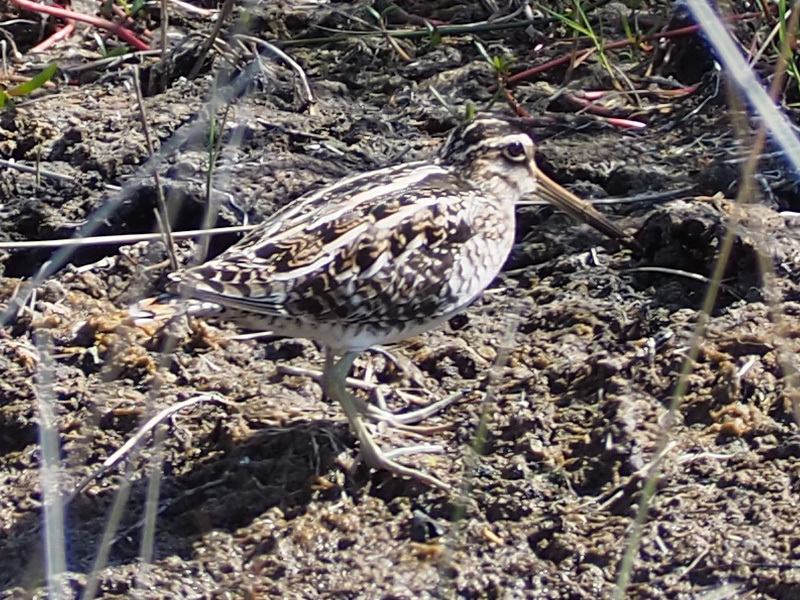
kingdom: Animalia
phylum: Chordata
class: Aves
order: Charadriiformes
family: Scolopacidae
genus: Gallinago
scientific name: Gallinago delicata
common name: Wilson's snipe
